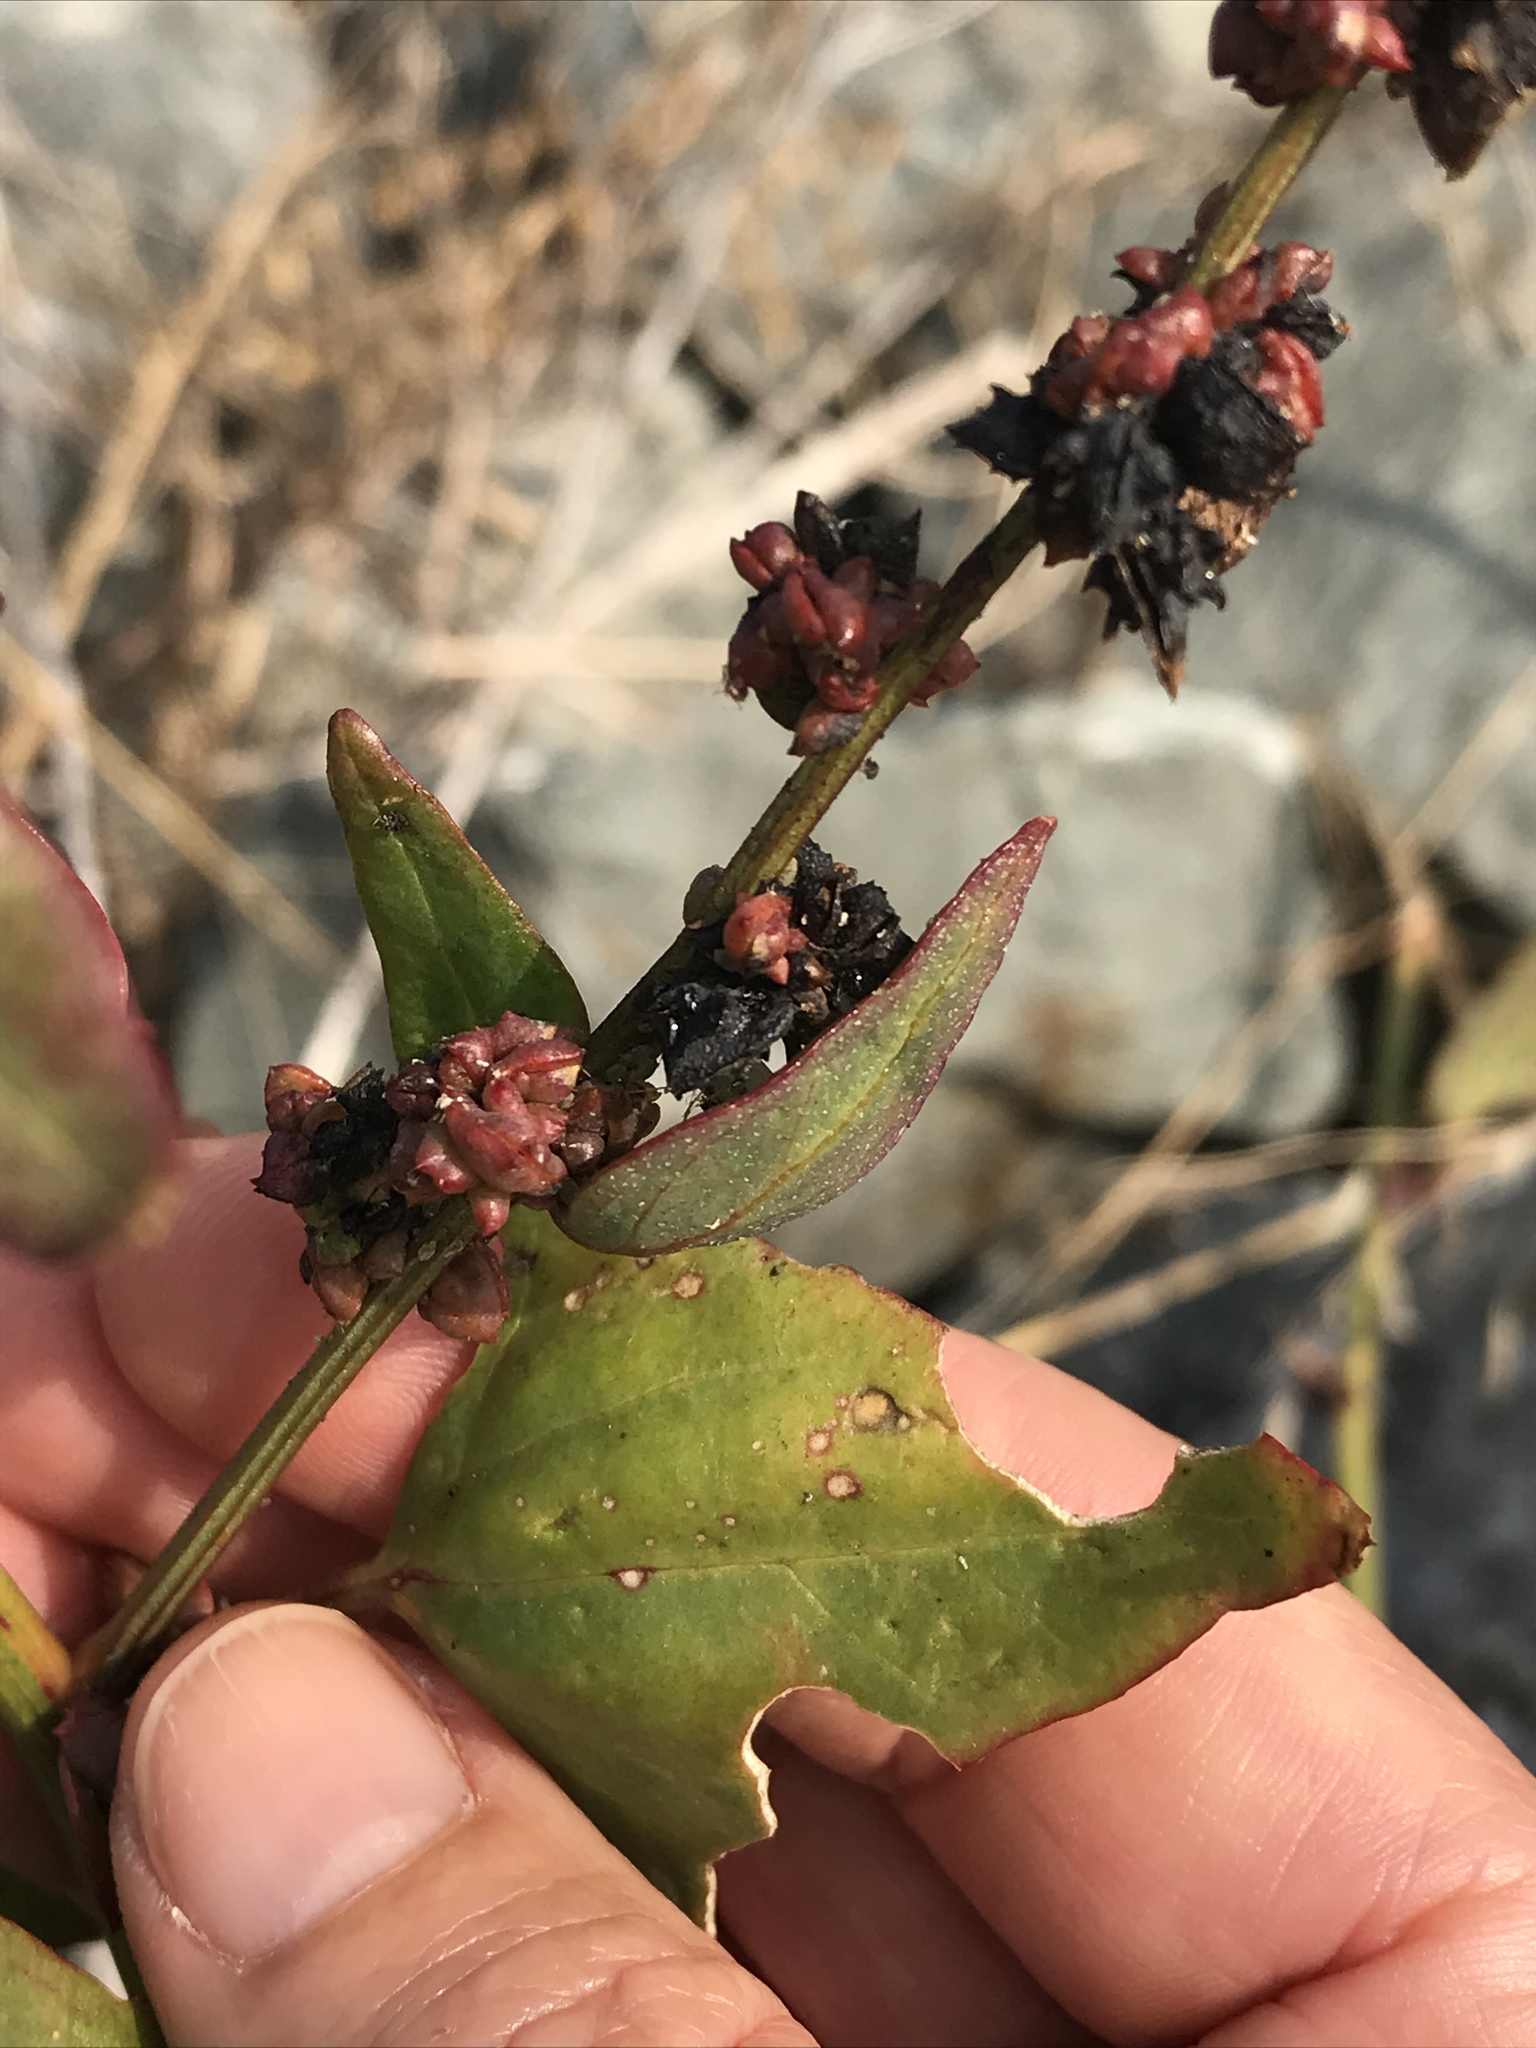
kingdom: Plantae
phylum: Tracheophyta
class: Magnoliopsida
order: Caryophyllales
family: Amaranthaceae
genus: Atriplex
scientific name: Atriplex prostrata
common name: Spear-leaved orache
